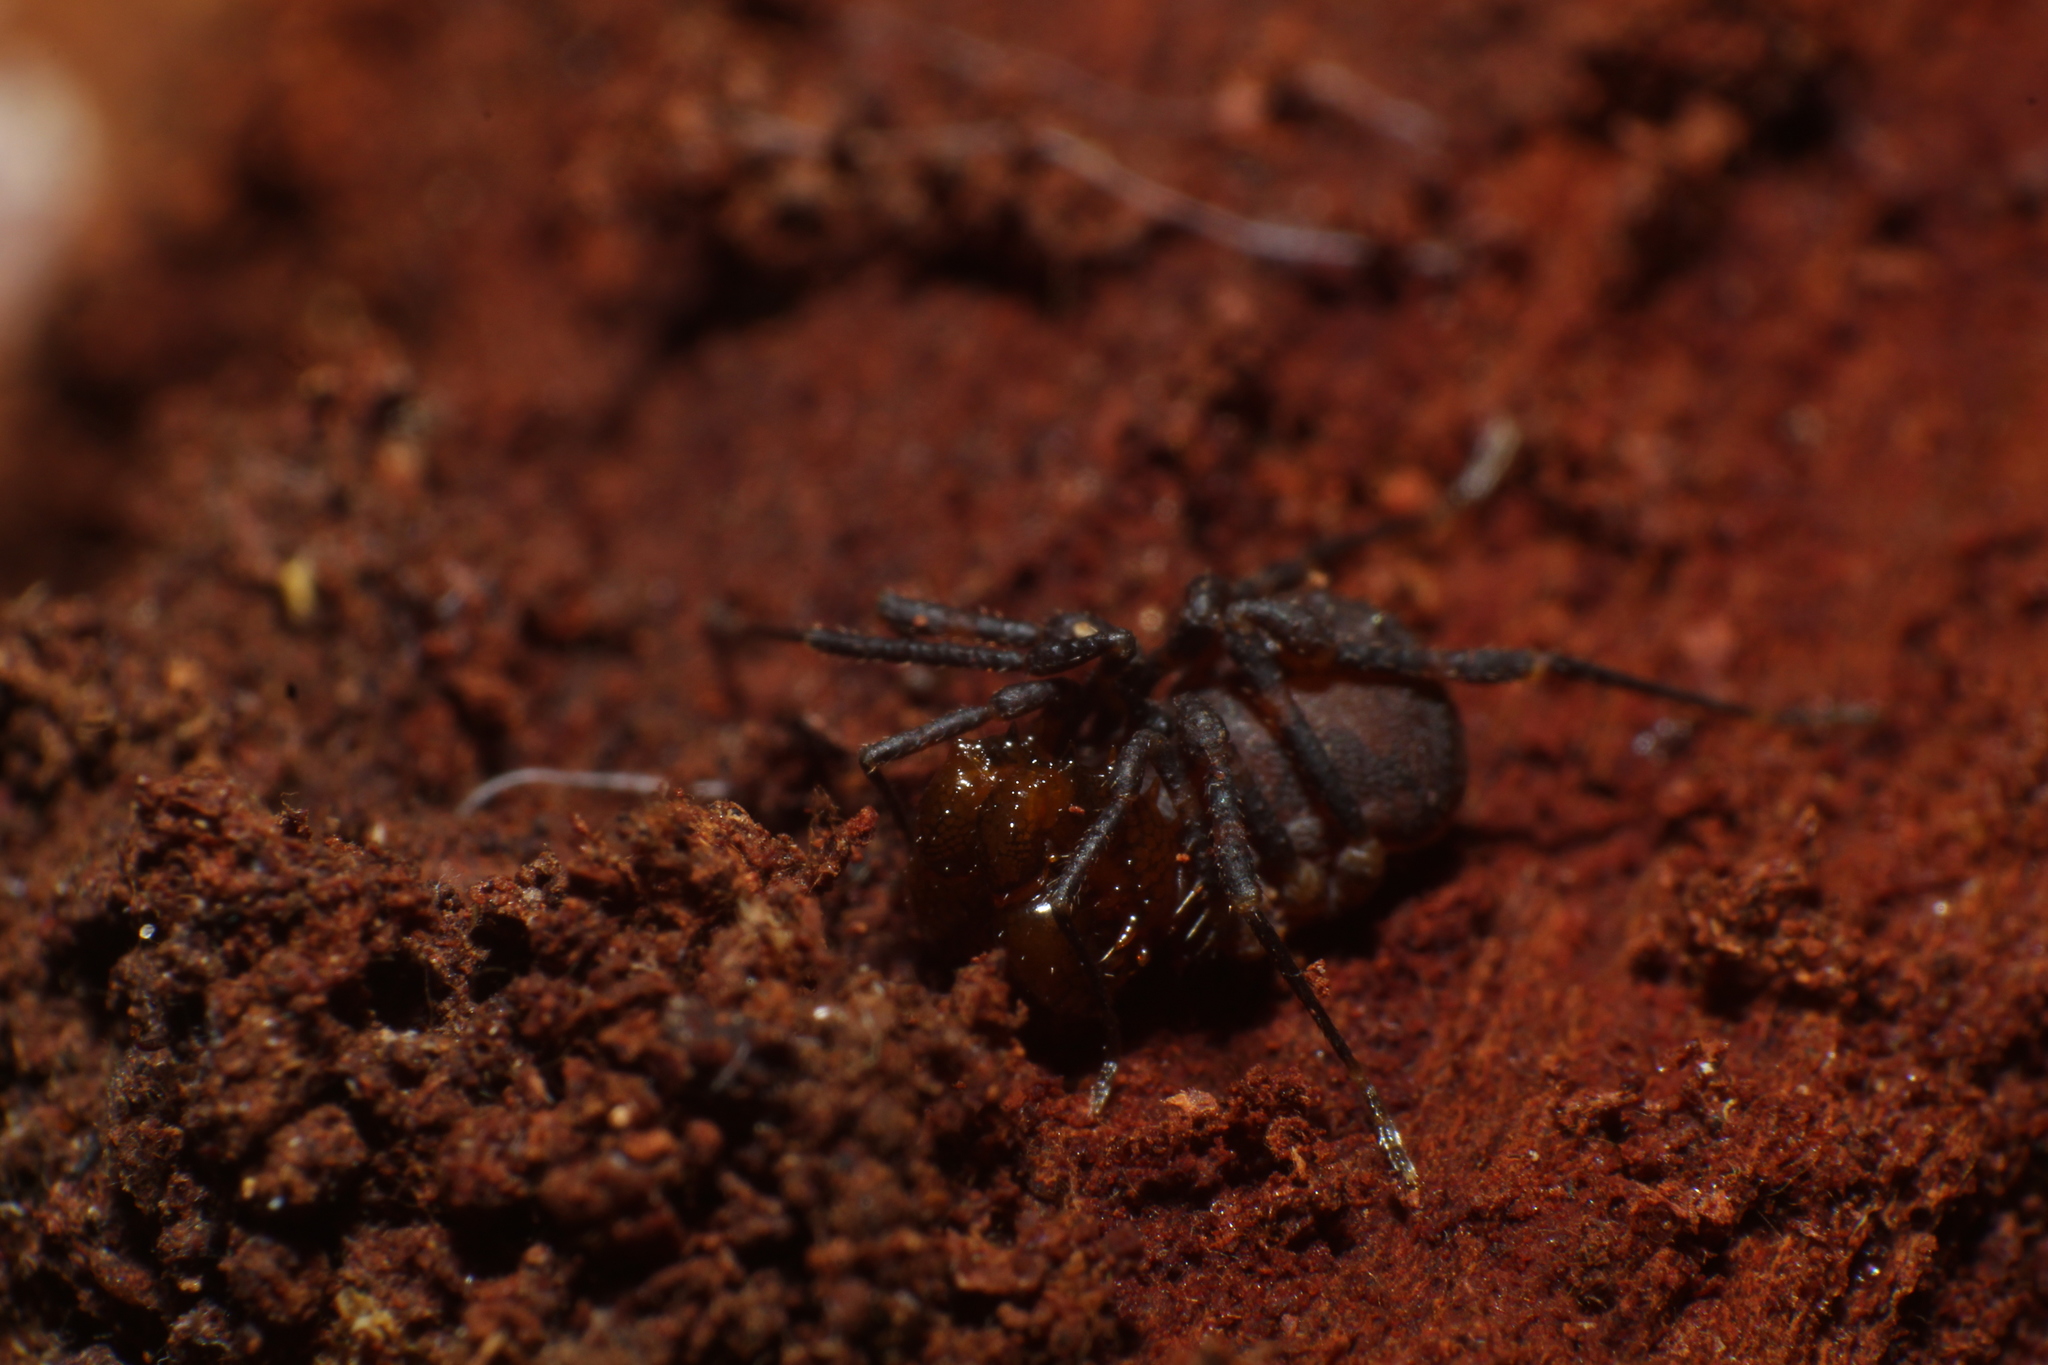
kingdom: Animalia
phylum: Arthropoda
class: Arachnida
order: Opiliones
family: Triaenonychidae
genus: Breviacantha
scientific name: Breviacantha gisleni
